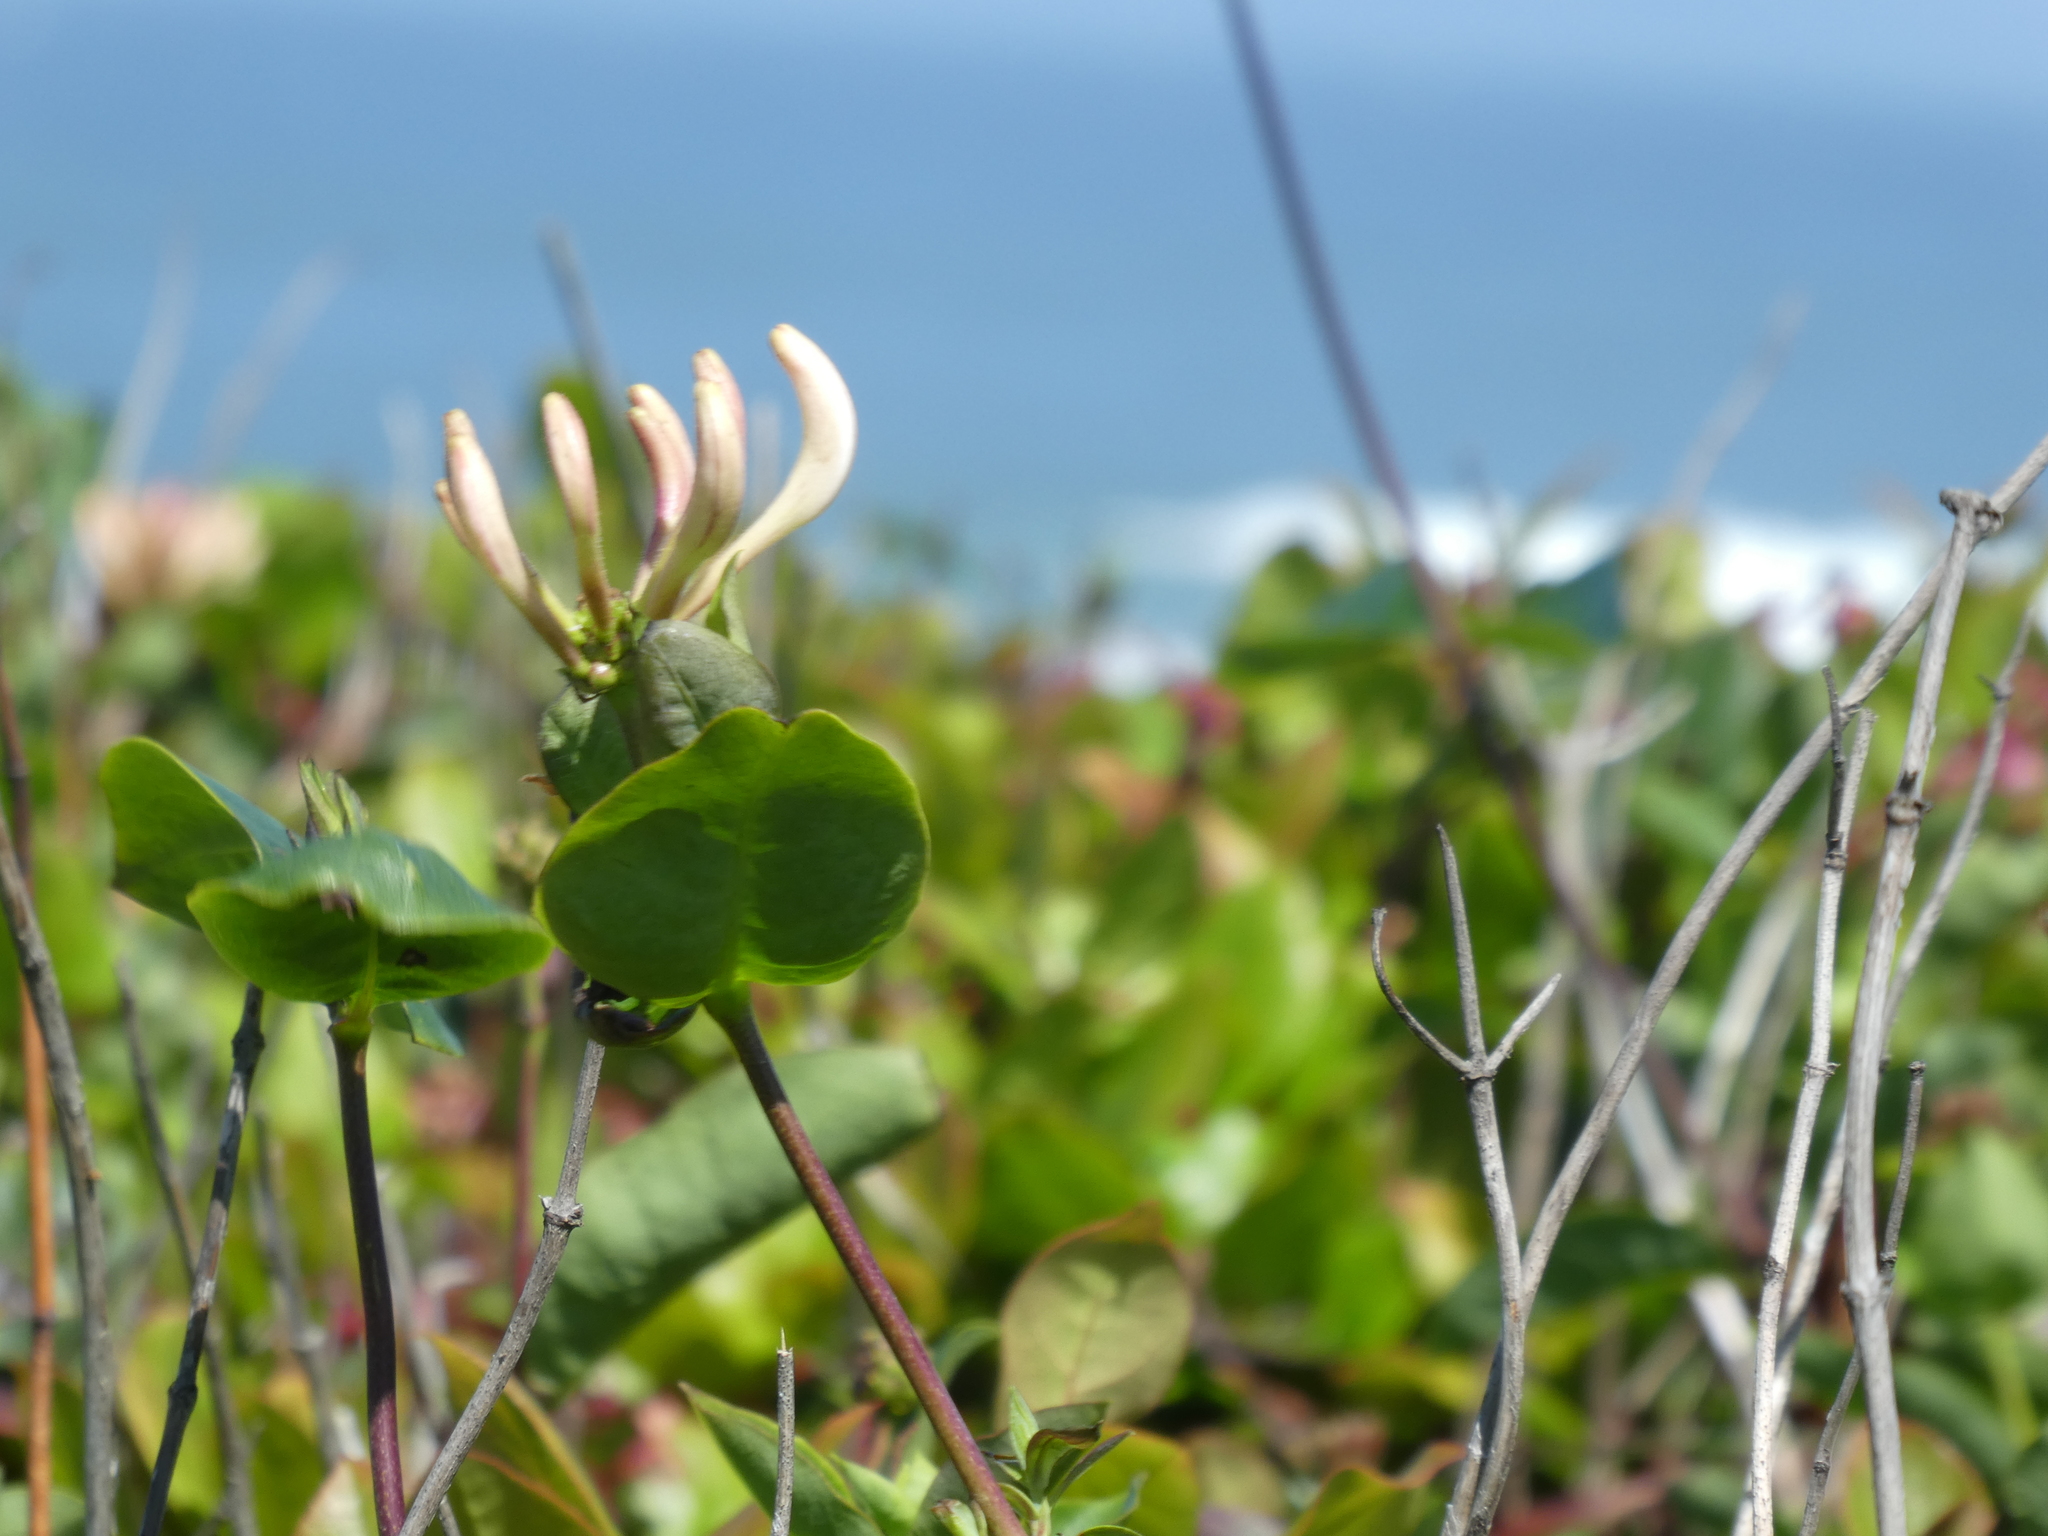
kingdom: Plantae
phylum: Tracheophyta
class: Magnoliopsida
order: Dipsacales
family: Caprifoliaceae
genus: Lonicera
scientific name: Lonicera periclymenum
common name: European honeysuckle
